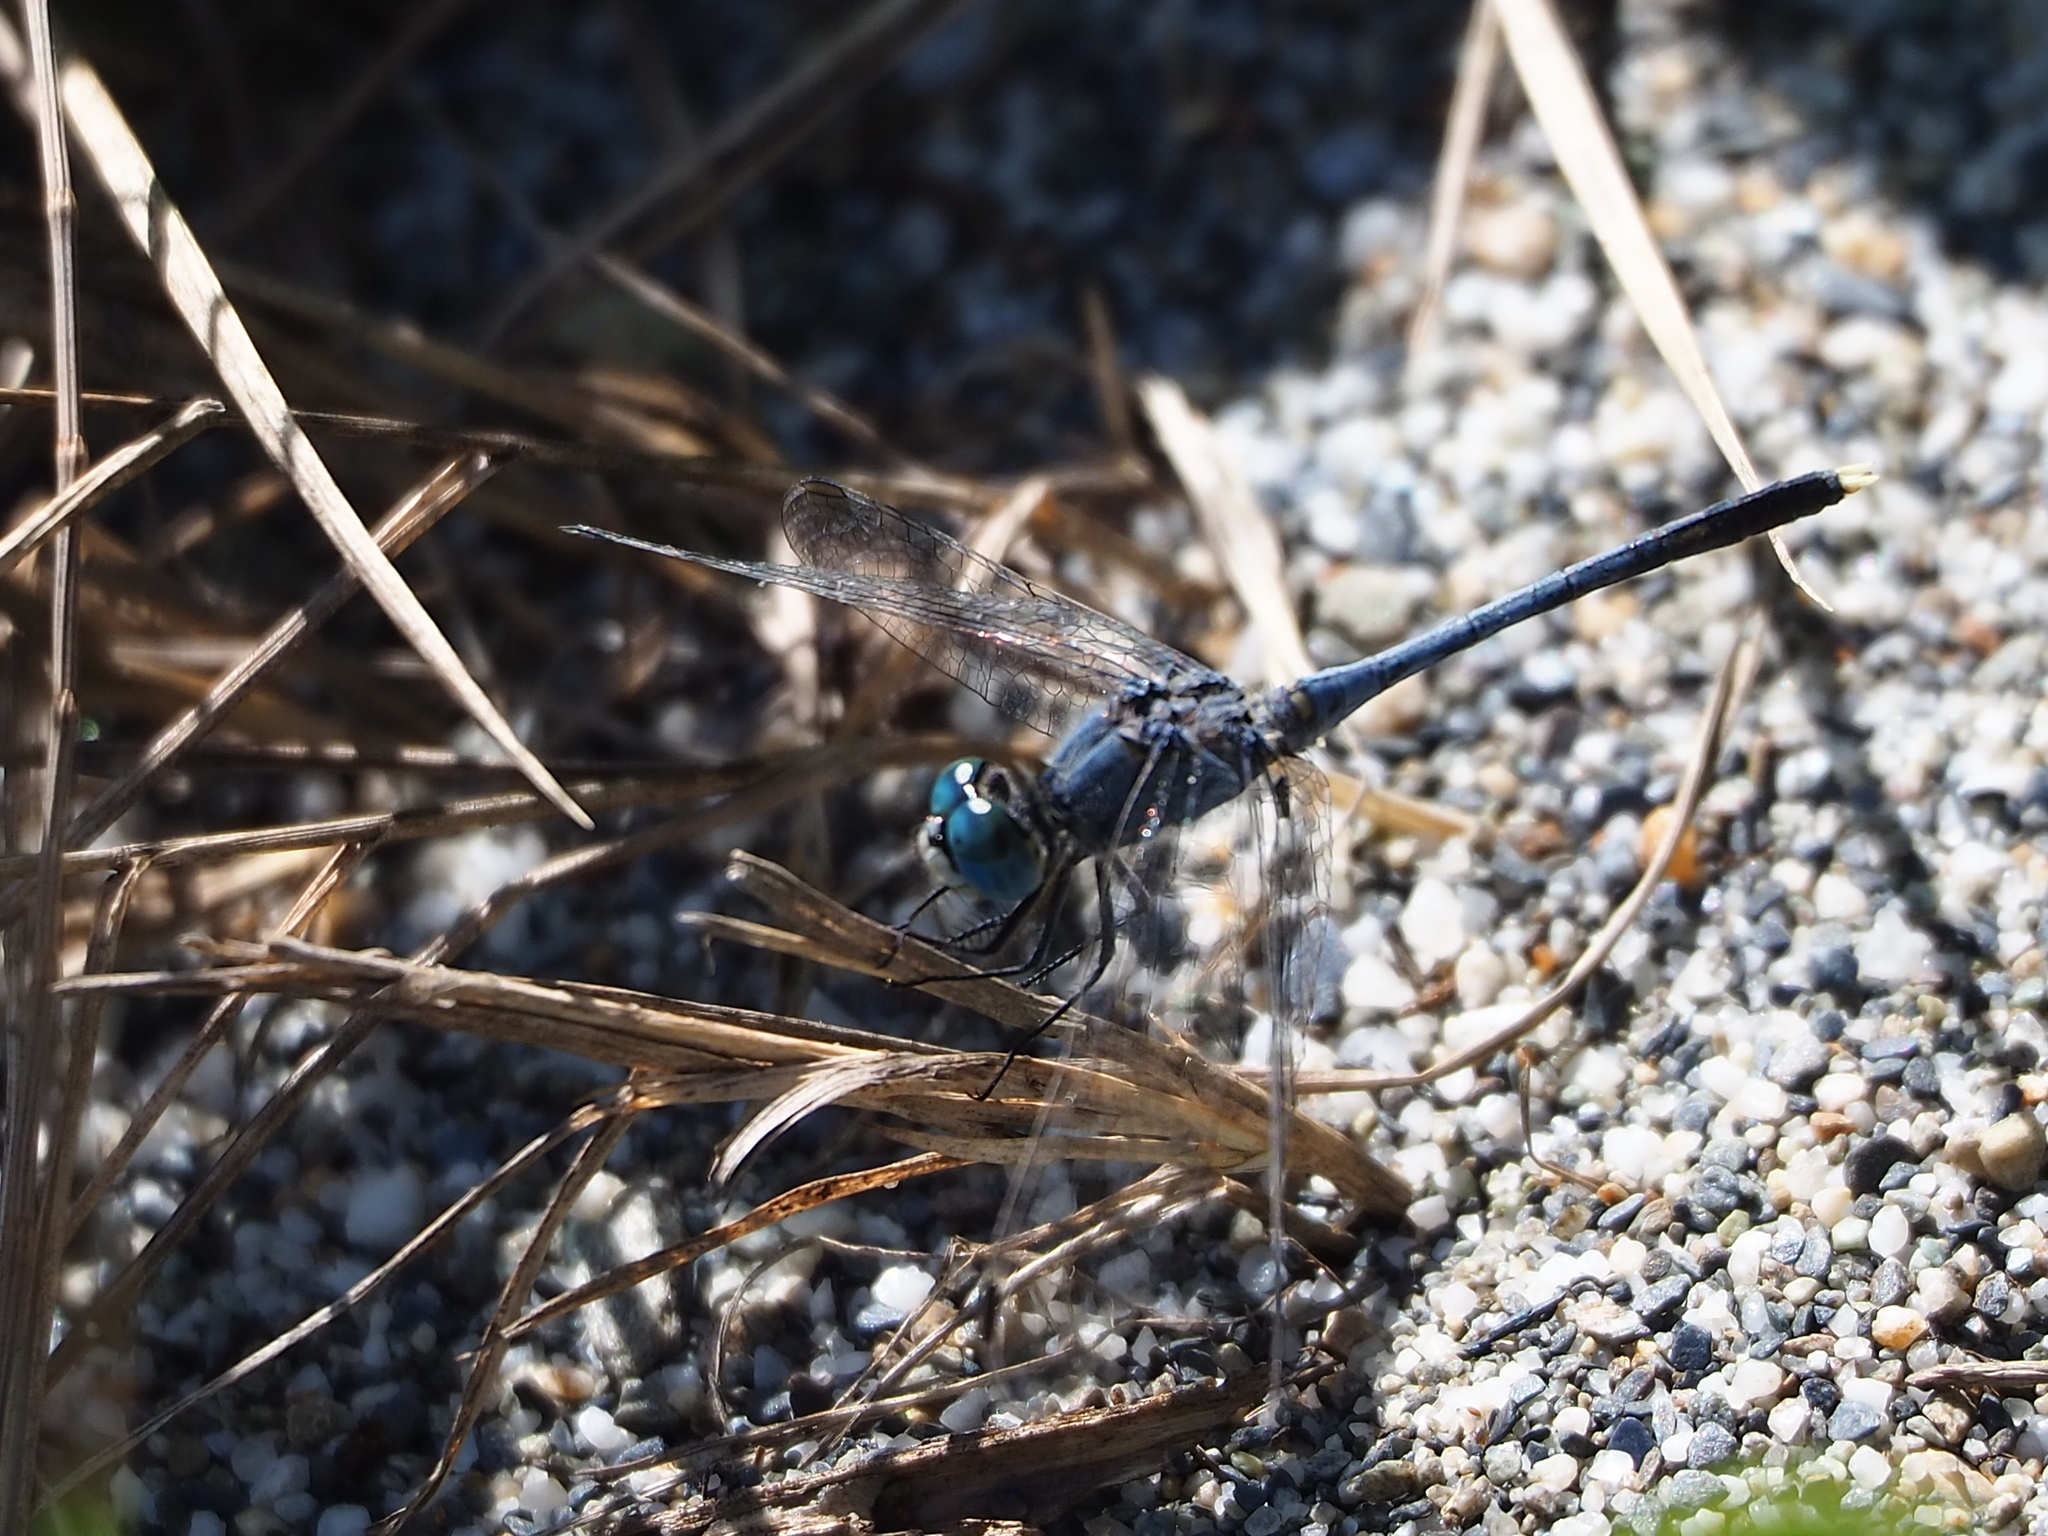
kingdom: Animalia
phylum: Arthropoda
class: Insecta
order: Odonata
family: Libellulidae
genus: Diplacodes
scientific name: Diplacodes trivialis
